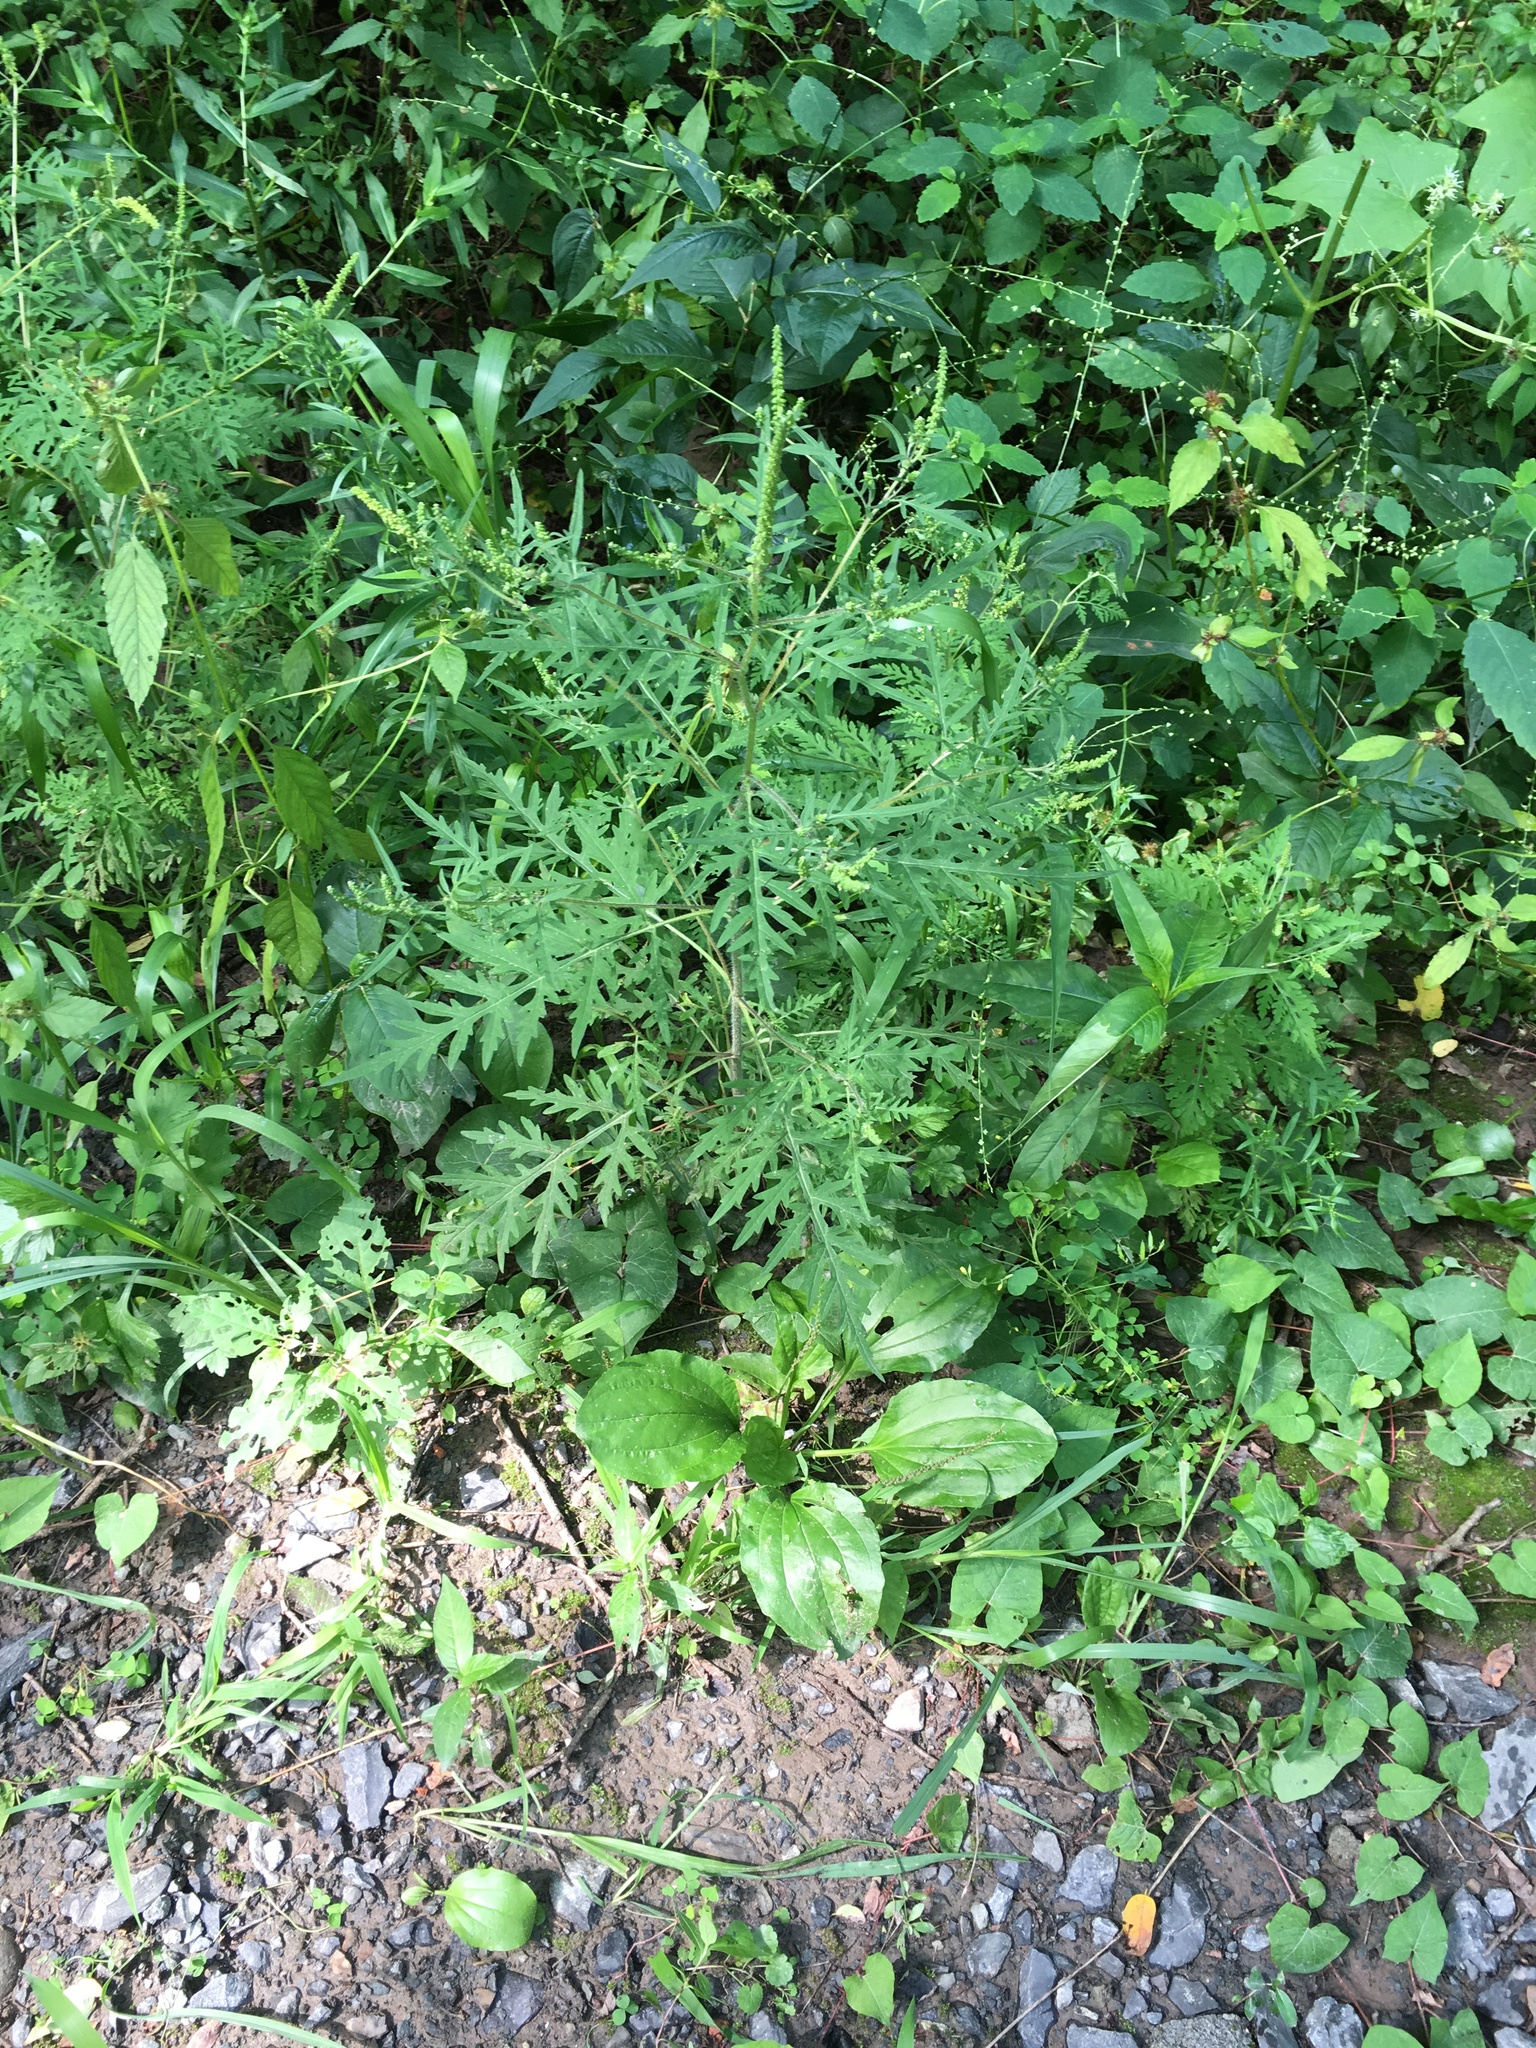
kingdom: Plantae
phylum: Tracheophyta
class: Magnoliopsida
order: Asterales
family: Asteraceae
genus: Ambrosia
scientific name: Ambrosia artemisiifolia
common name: Annual ragweed
